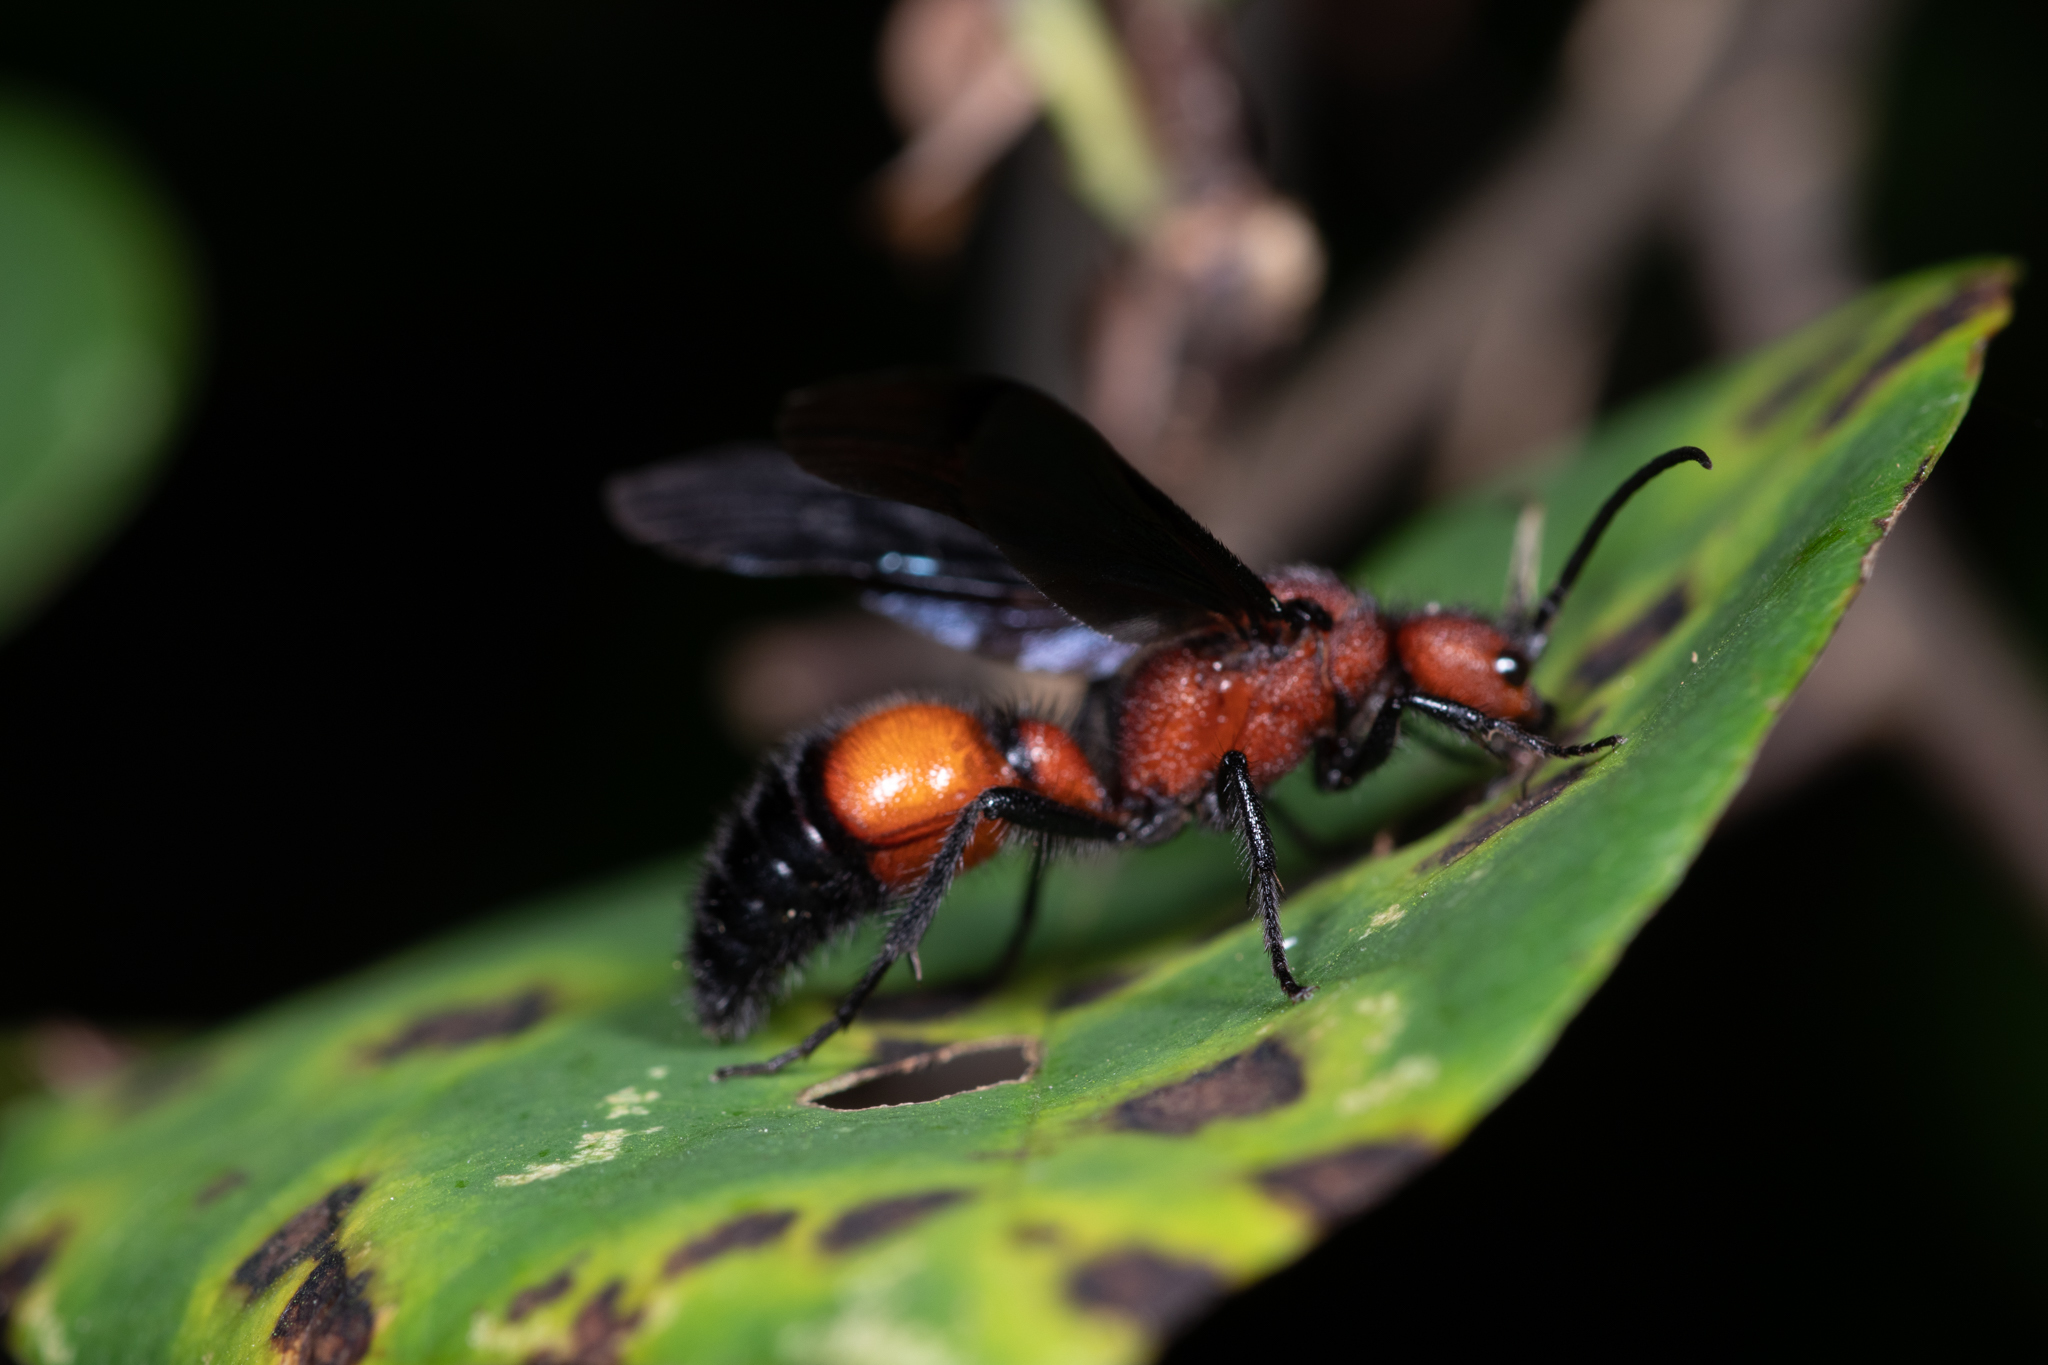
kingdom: Animalia
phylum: Arthropoda
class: Insecta
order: Hymenoptera
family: Mutillidae
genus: Sphaeropthalma
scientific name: Sphaeropthalma
